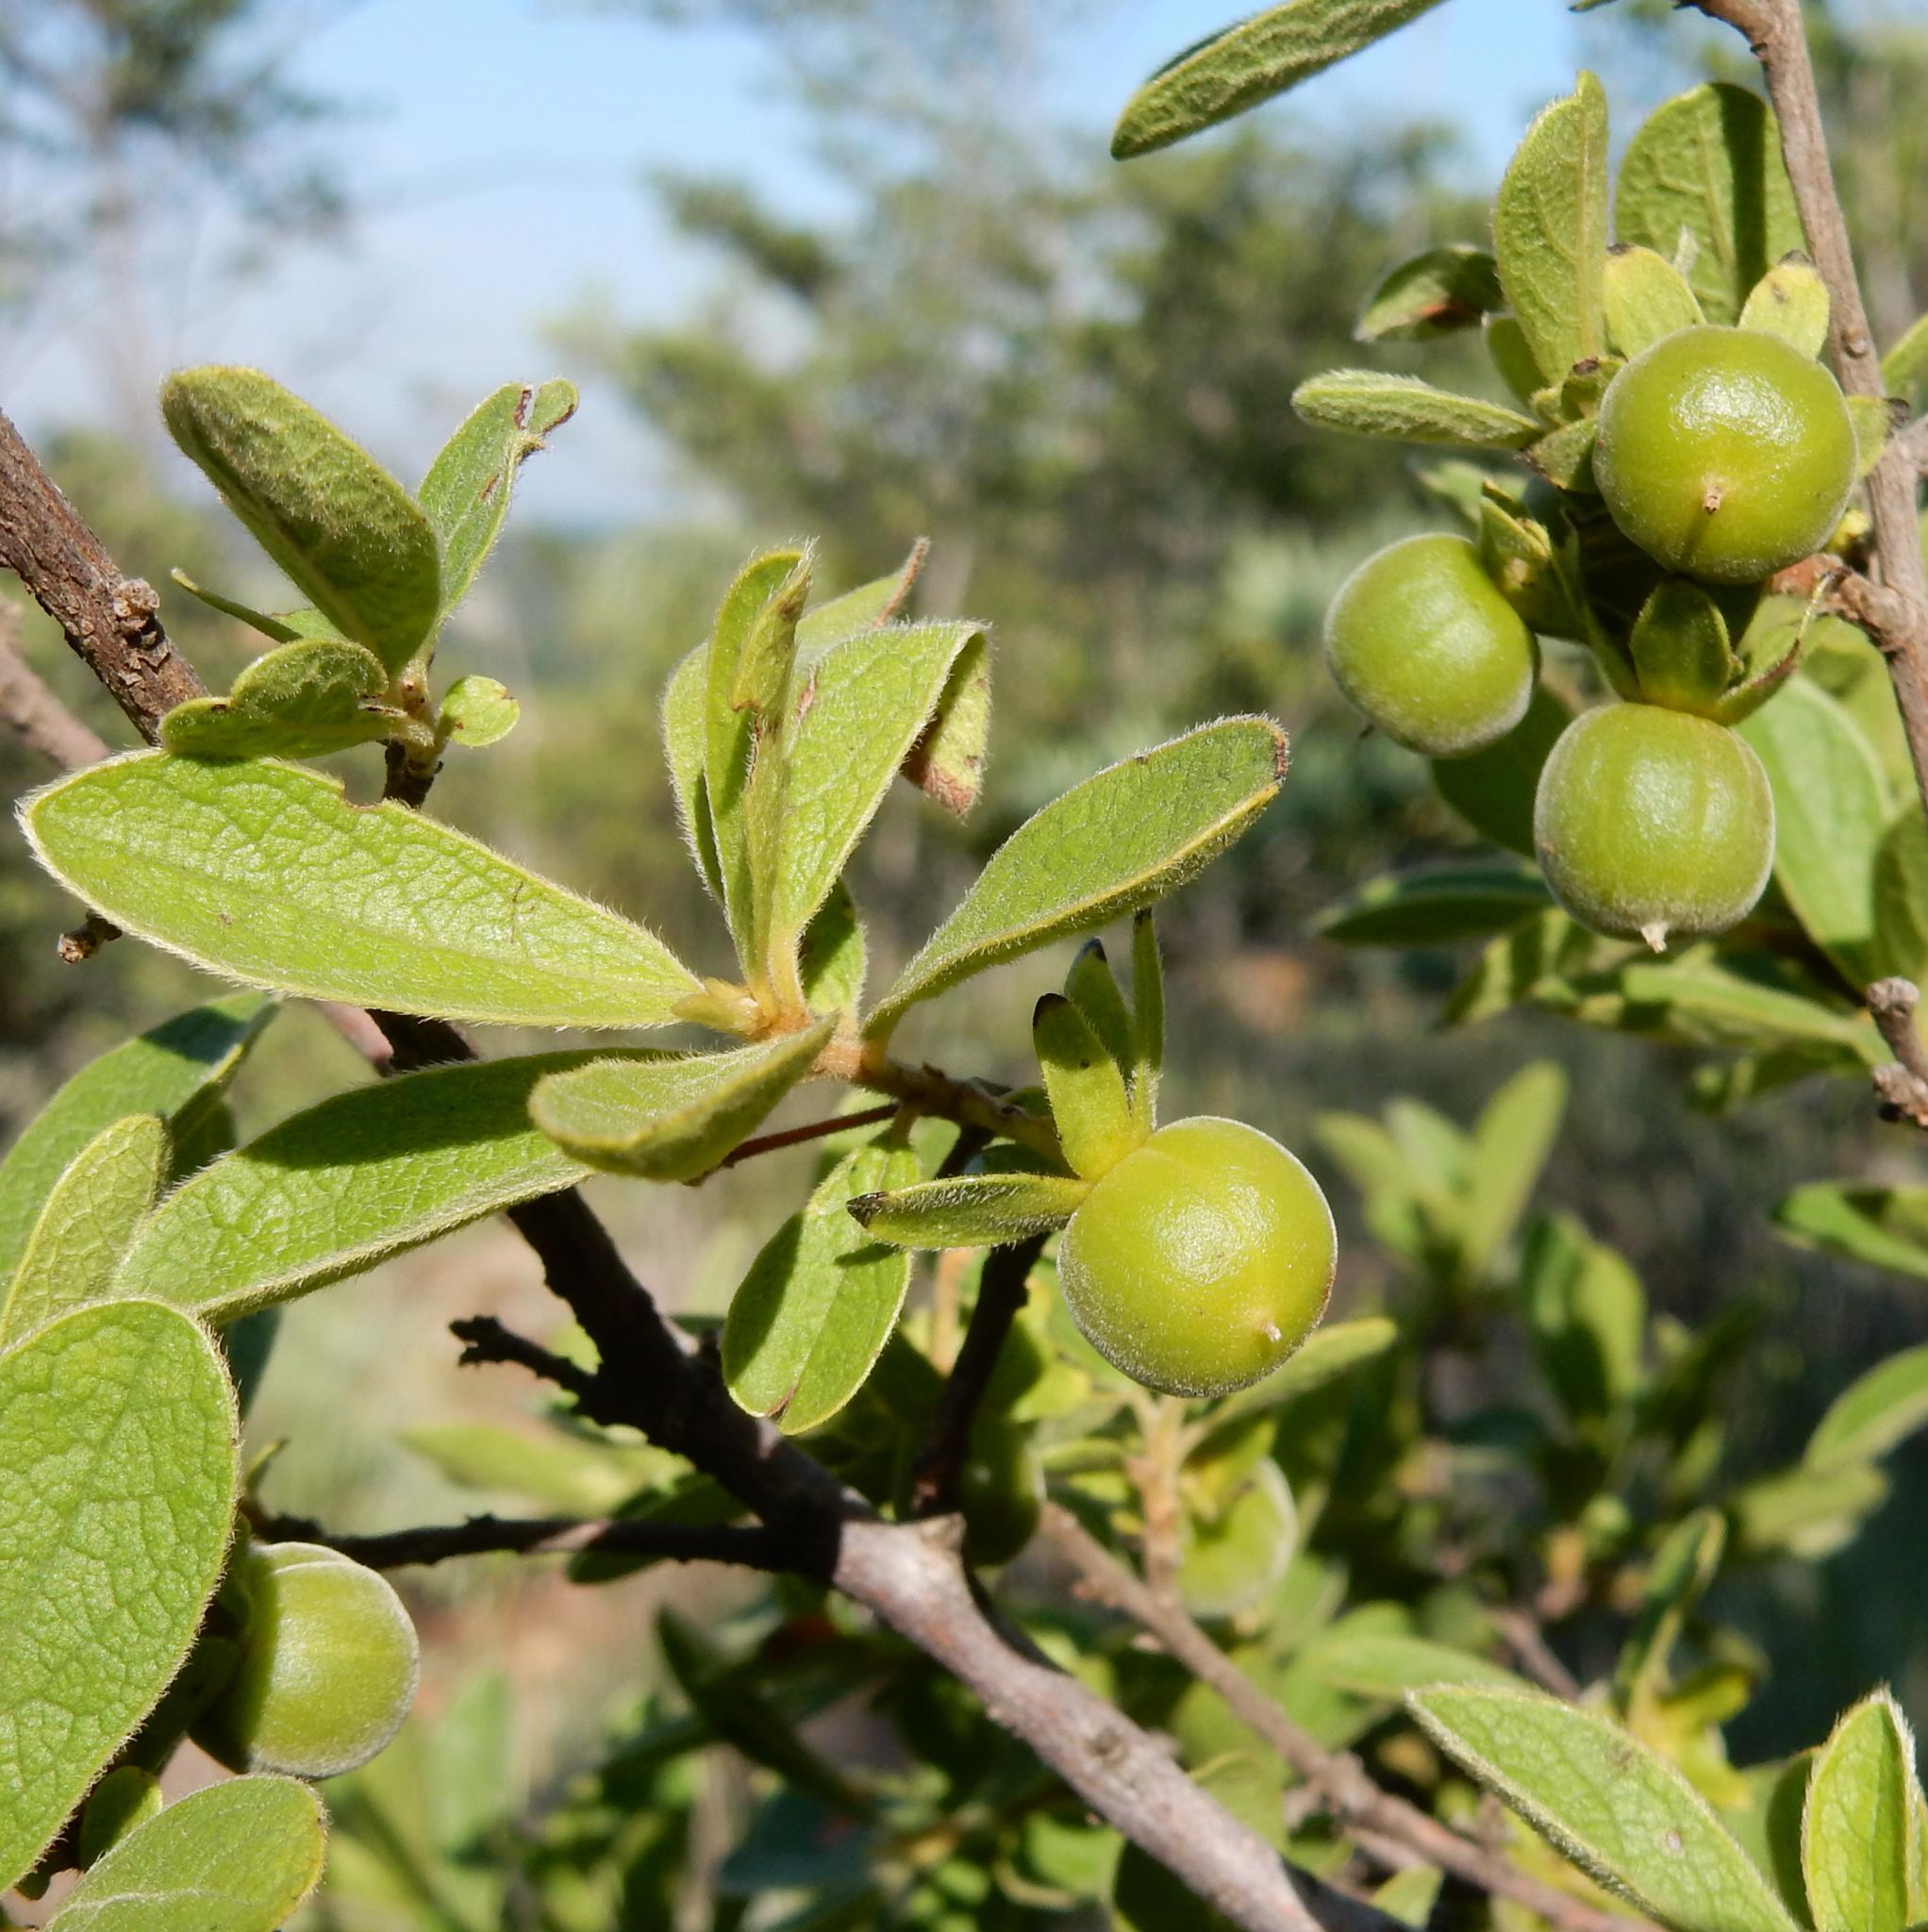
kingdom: Plantae
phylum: Tracheophyta
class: Magnoliopsida
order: Ericales
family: Ebenaceae
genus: Diospyros
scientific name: Diospyros lycioides
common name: Red star apple
